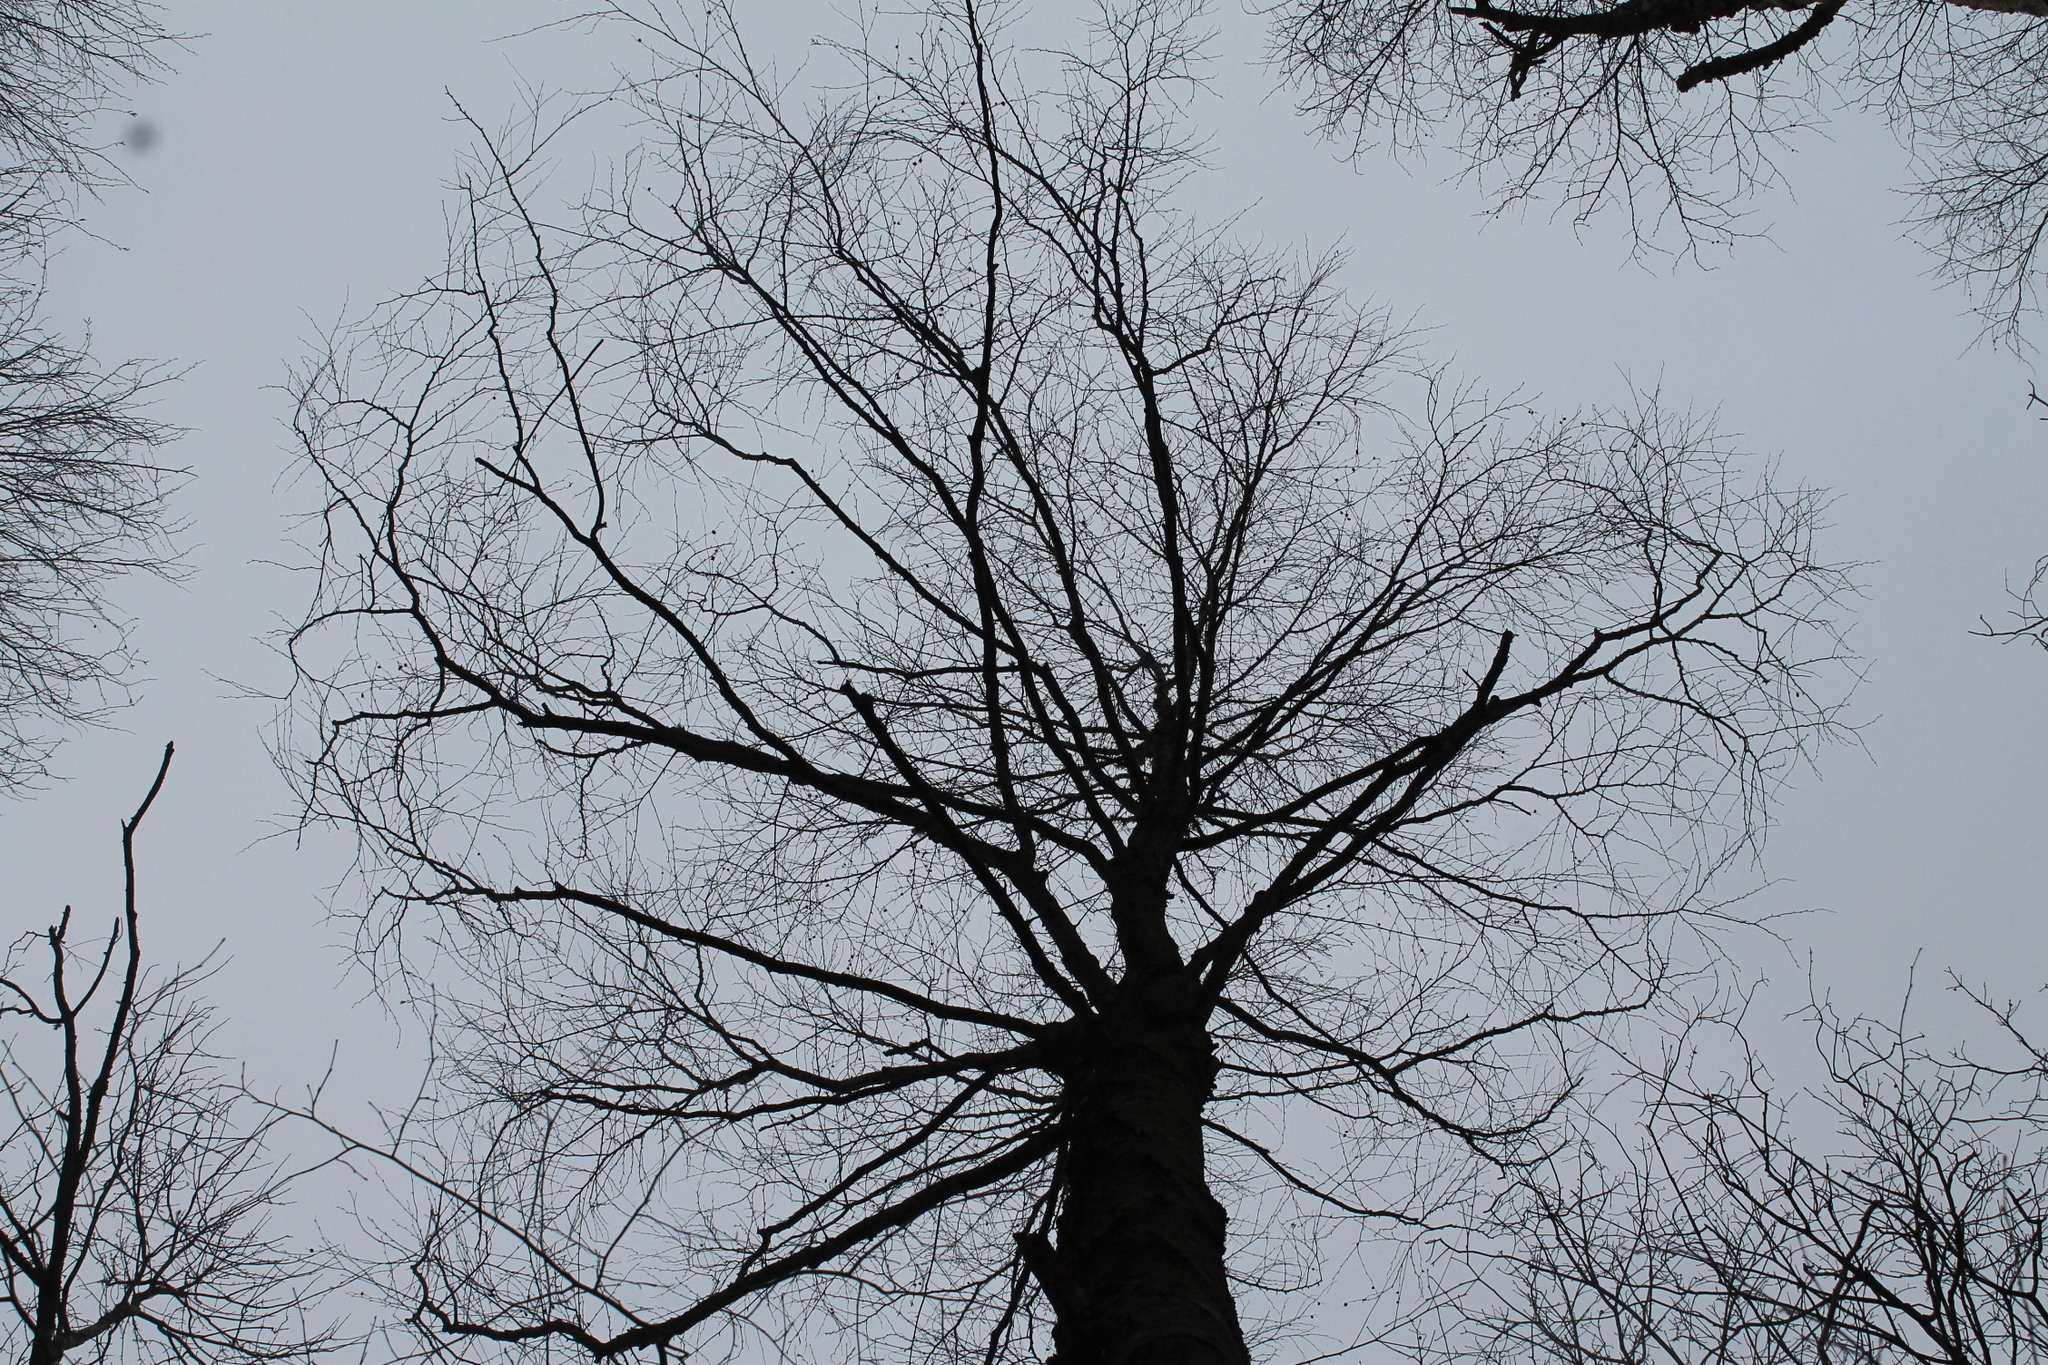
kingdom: Plantae
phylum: Tracheophyta
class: Magnoliopsida
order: Fagales
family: Betulaceae
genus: Betula
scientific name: Betula lenta
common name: Black birch
